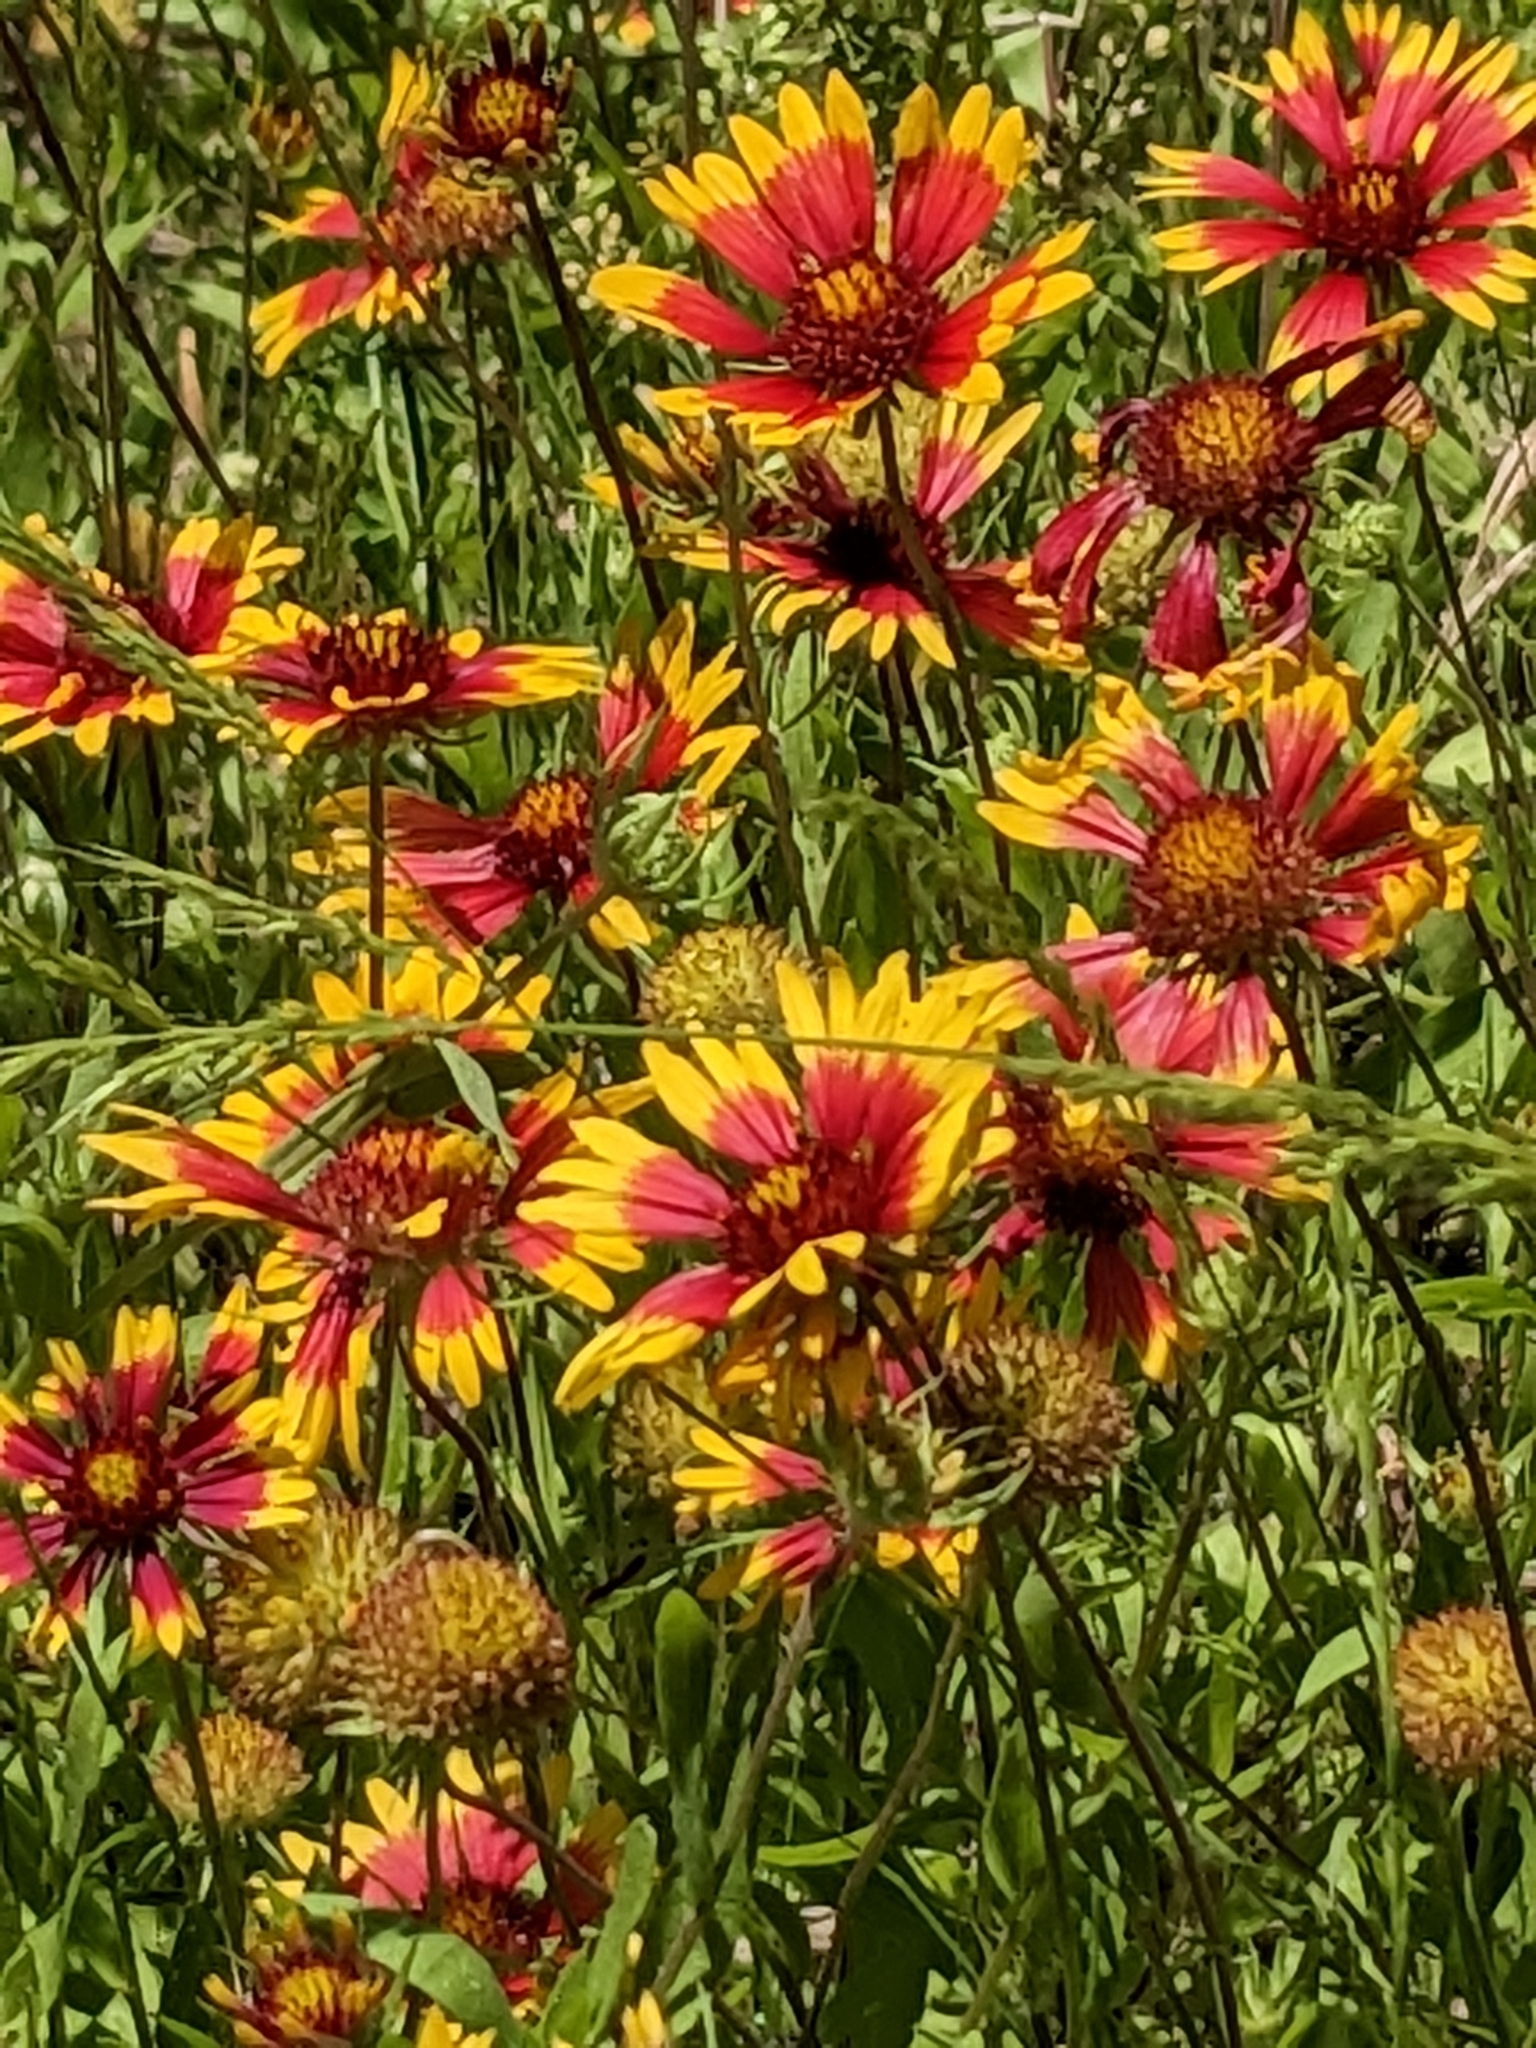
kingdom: Plantae
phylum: Tracheophyta
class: Magnoliopsida
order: Asterales
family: Asteraceae
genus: Gaillardia
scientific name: Gaillardia pulchella
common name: Firewheel
